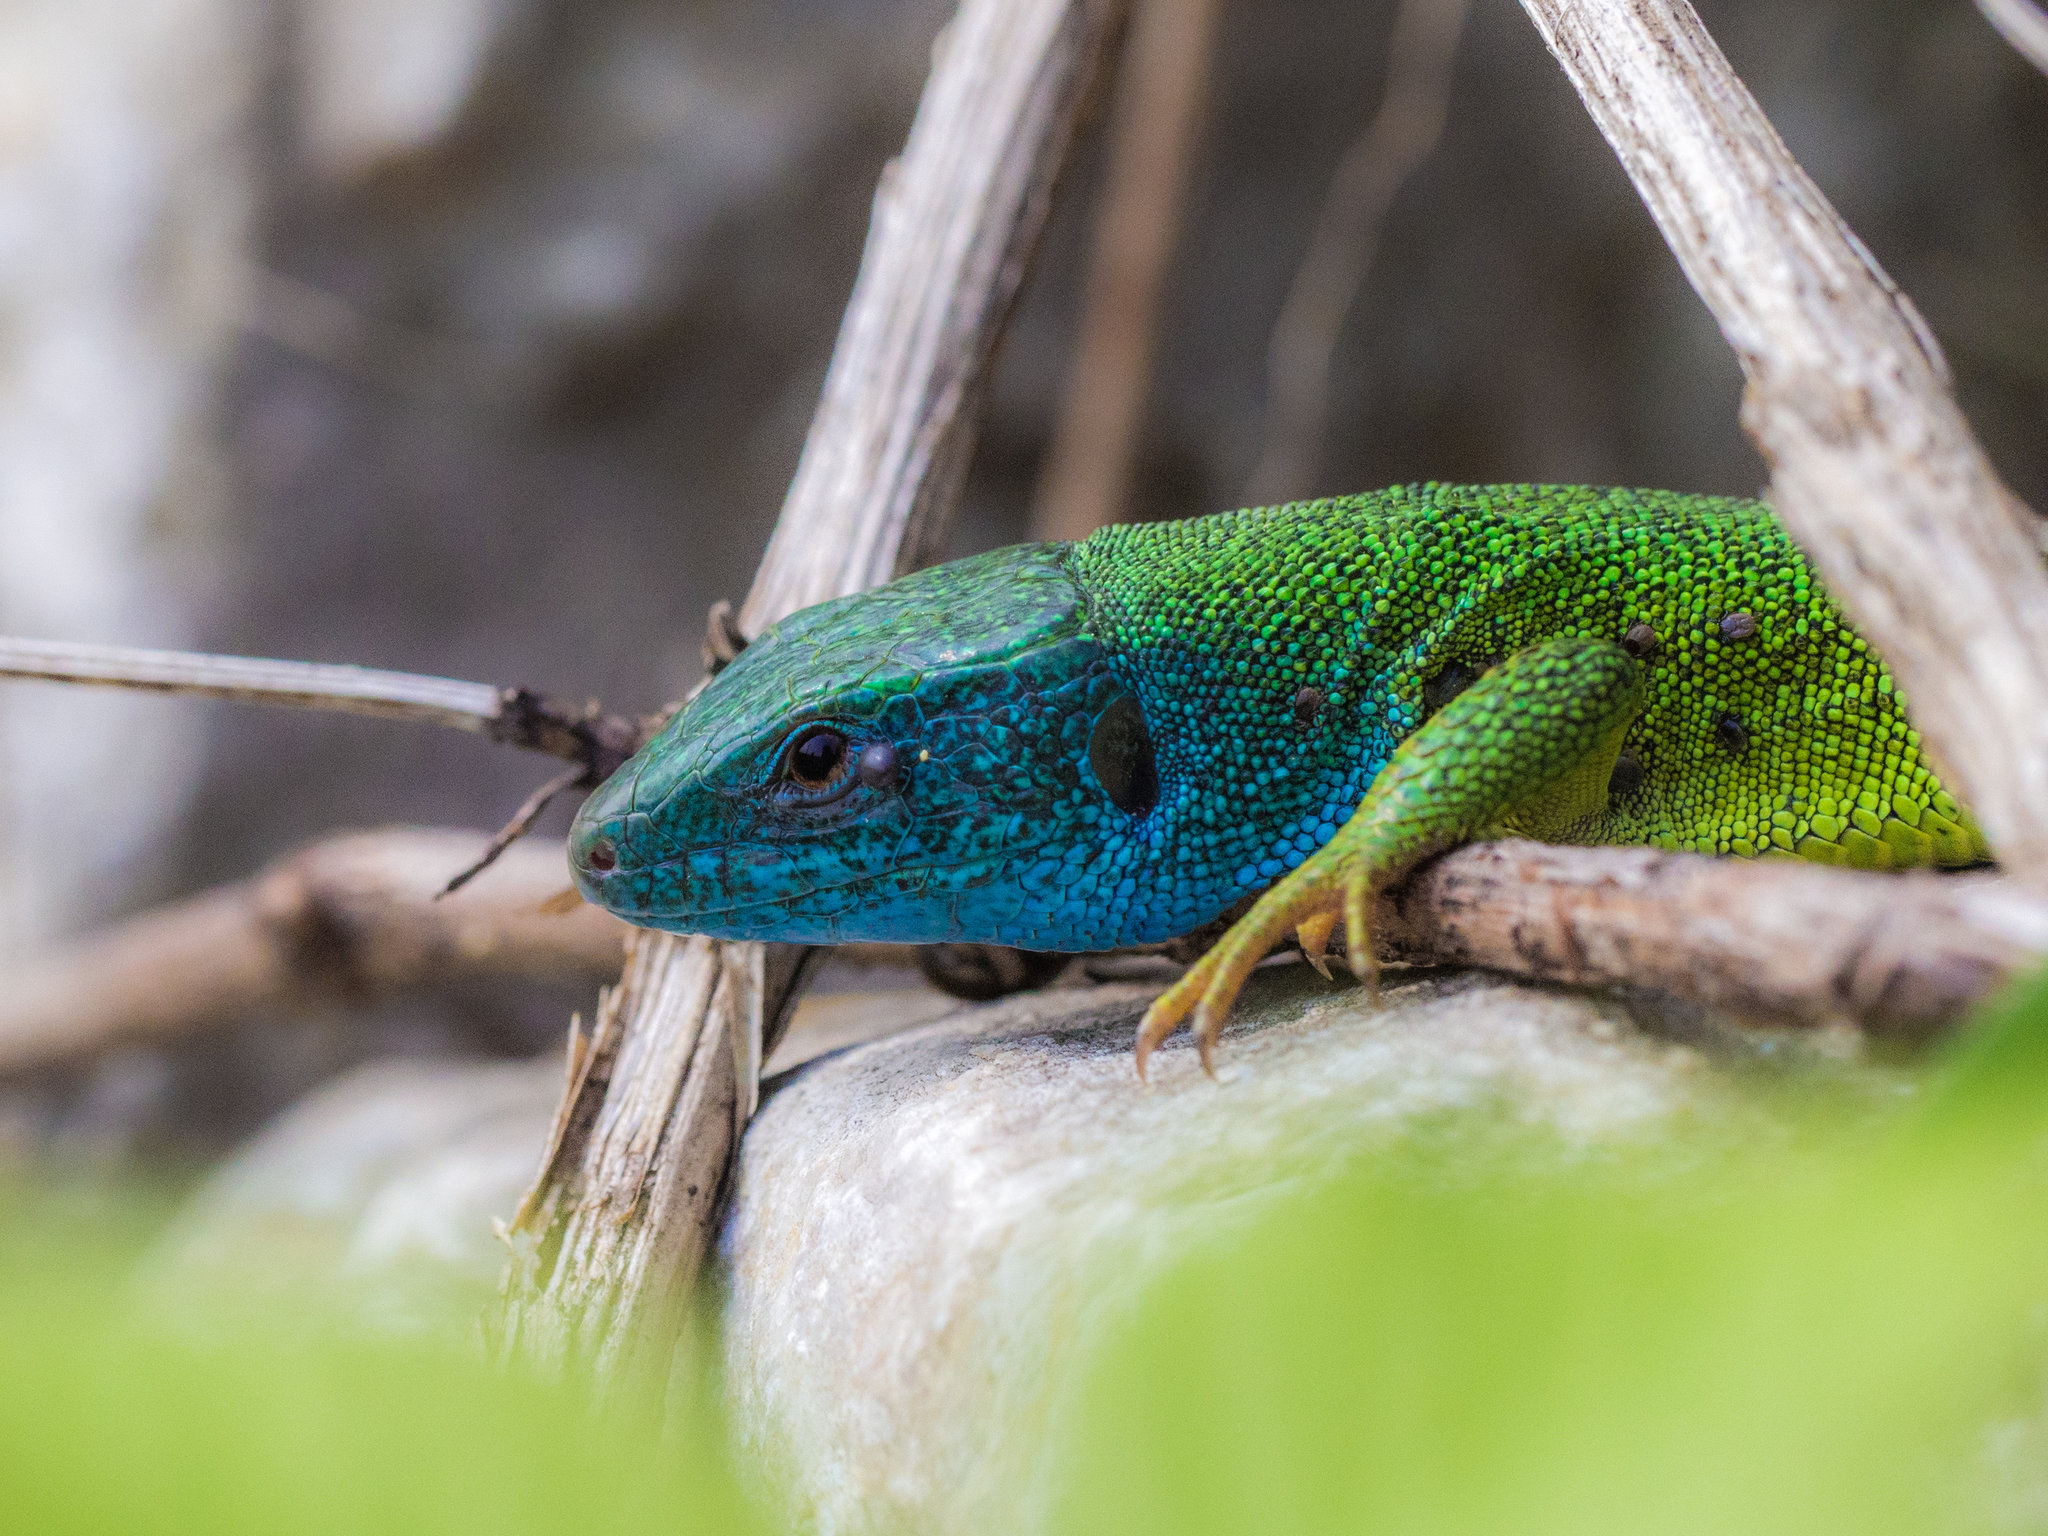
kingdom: Animalia
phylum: Chordata
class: Squamata
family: Lacertidae
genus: Lacerta
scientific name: Lacerta viridis
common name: European green lizard
